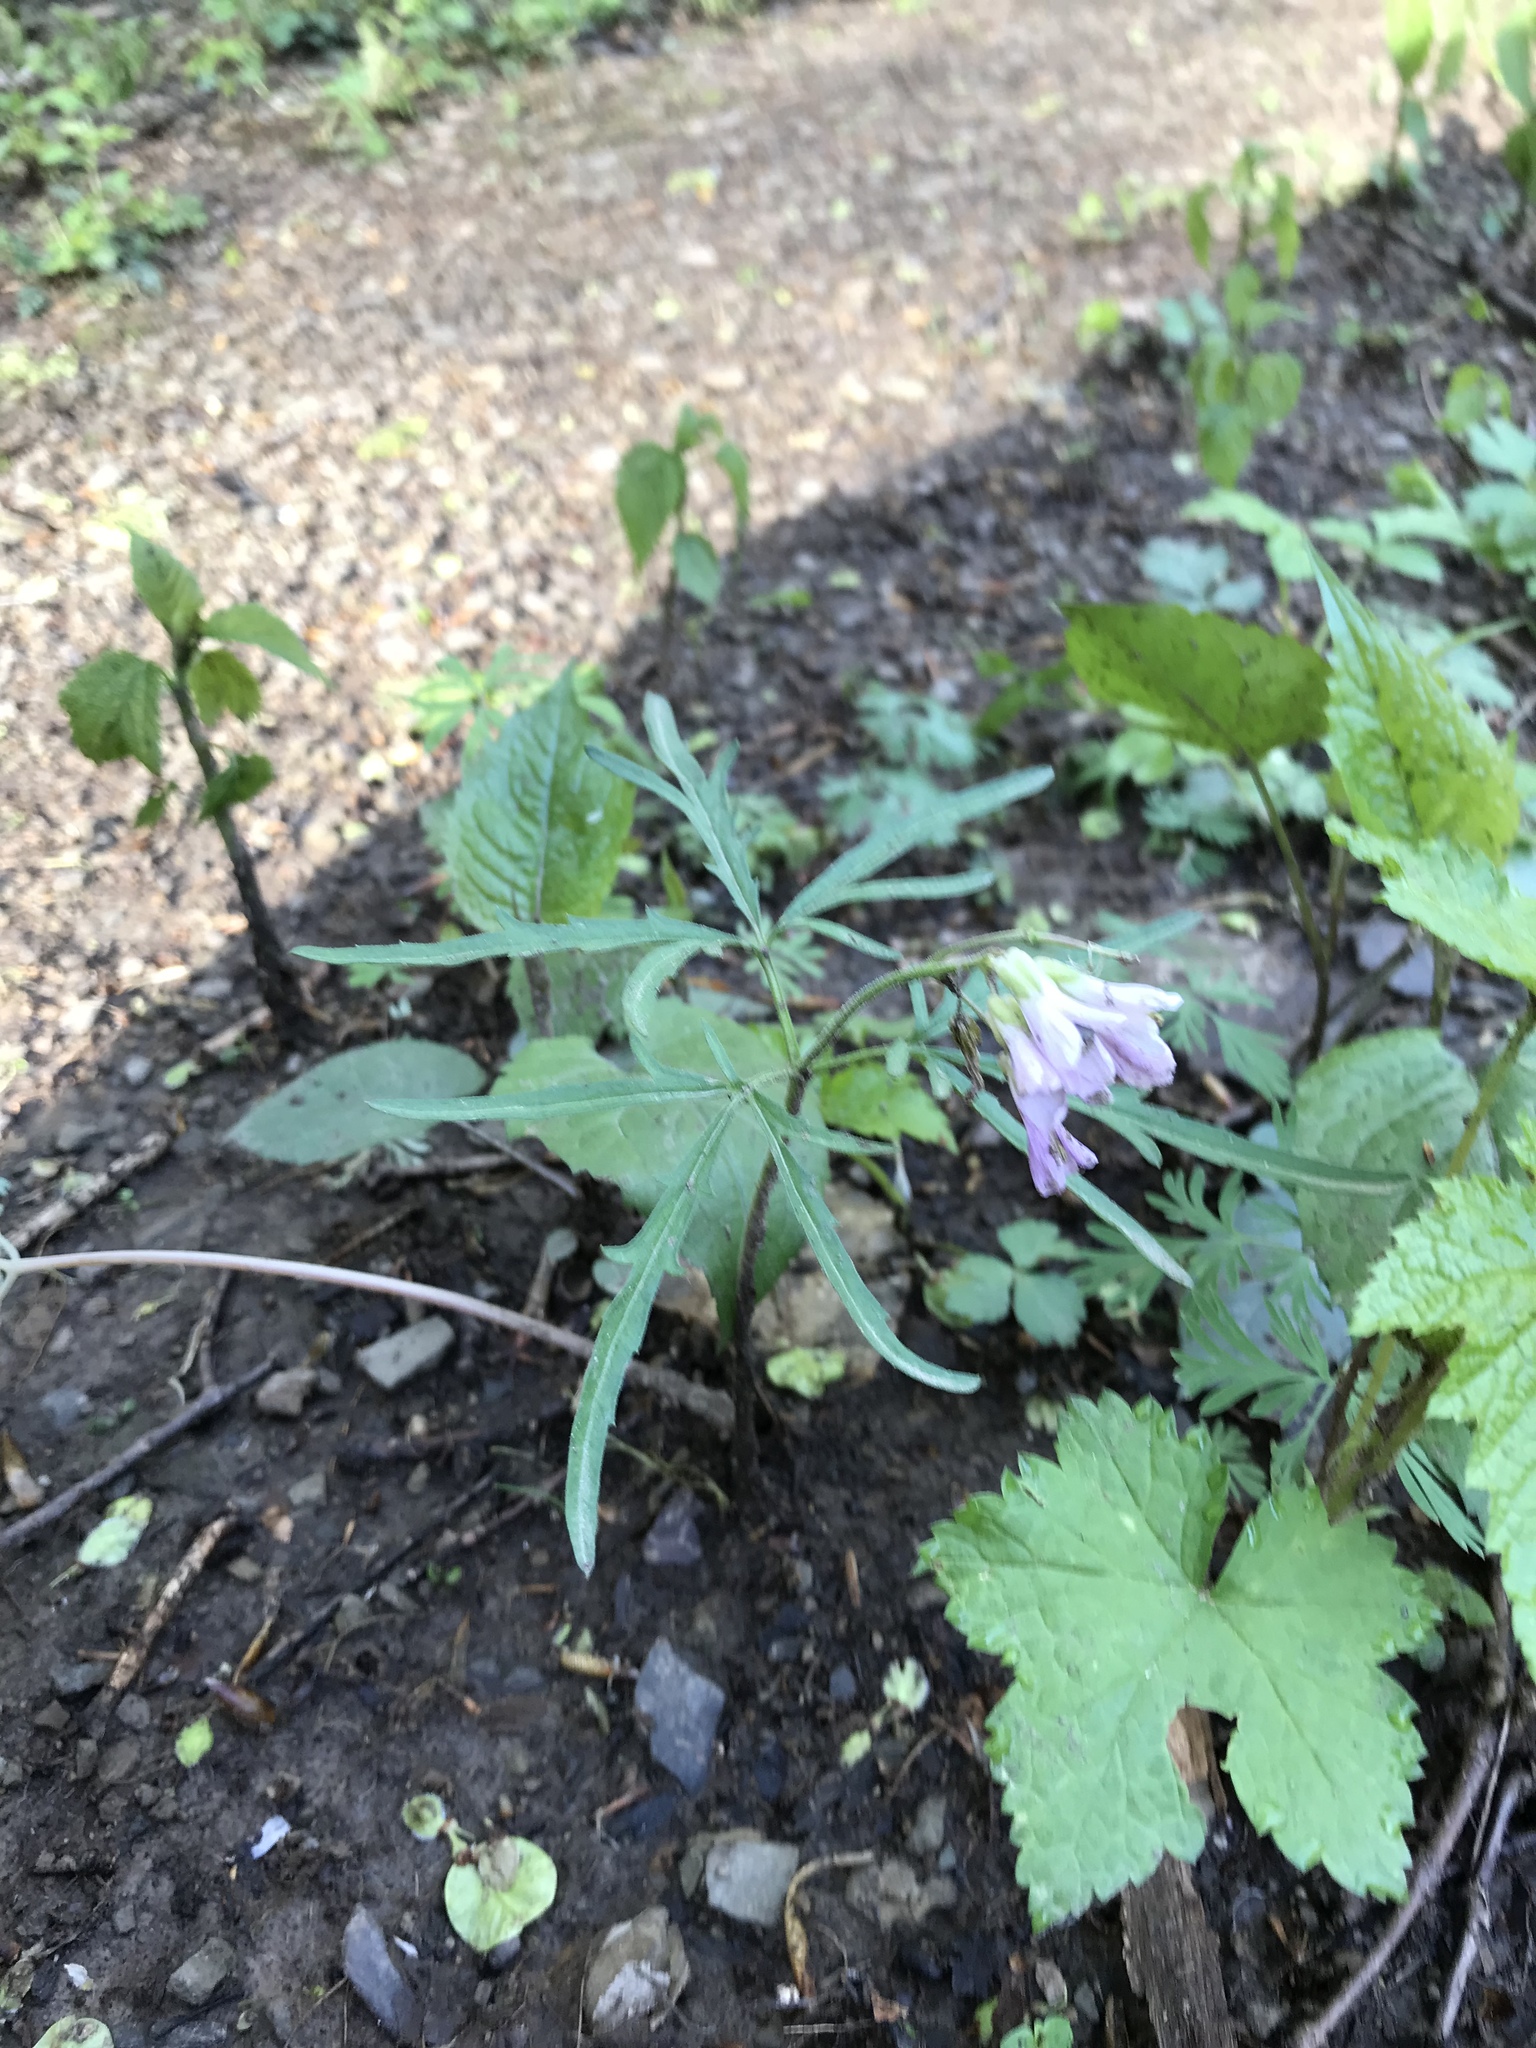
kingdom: Plantae
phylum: Tracheophyta
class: Magnoliopsida
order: Brassicales
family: Brassicaceae
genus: Cardamine
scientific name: Cardamine concatenata
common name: Cut-leaf toothcup
